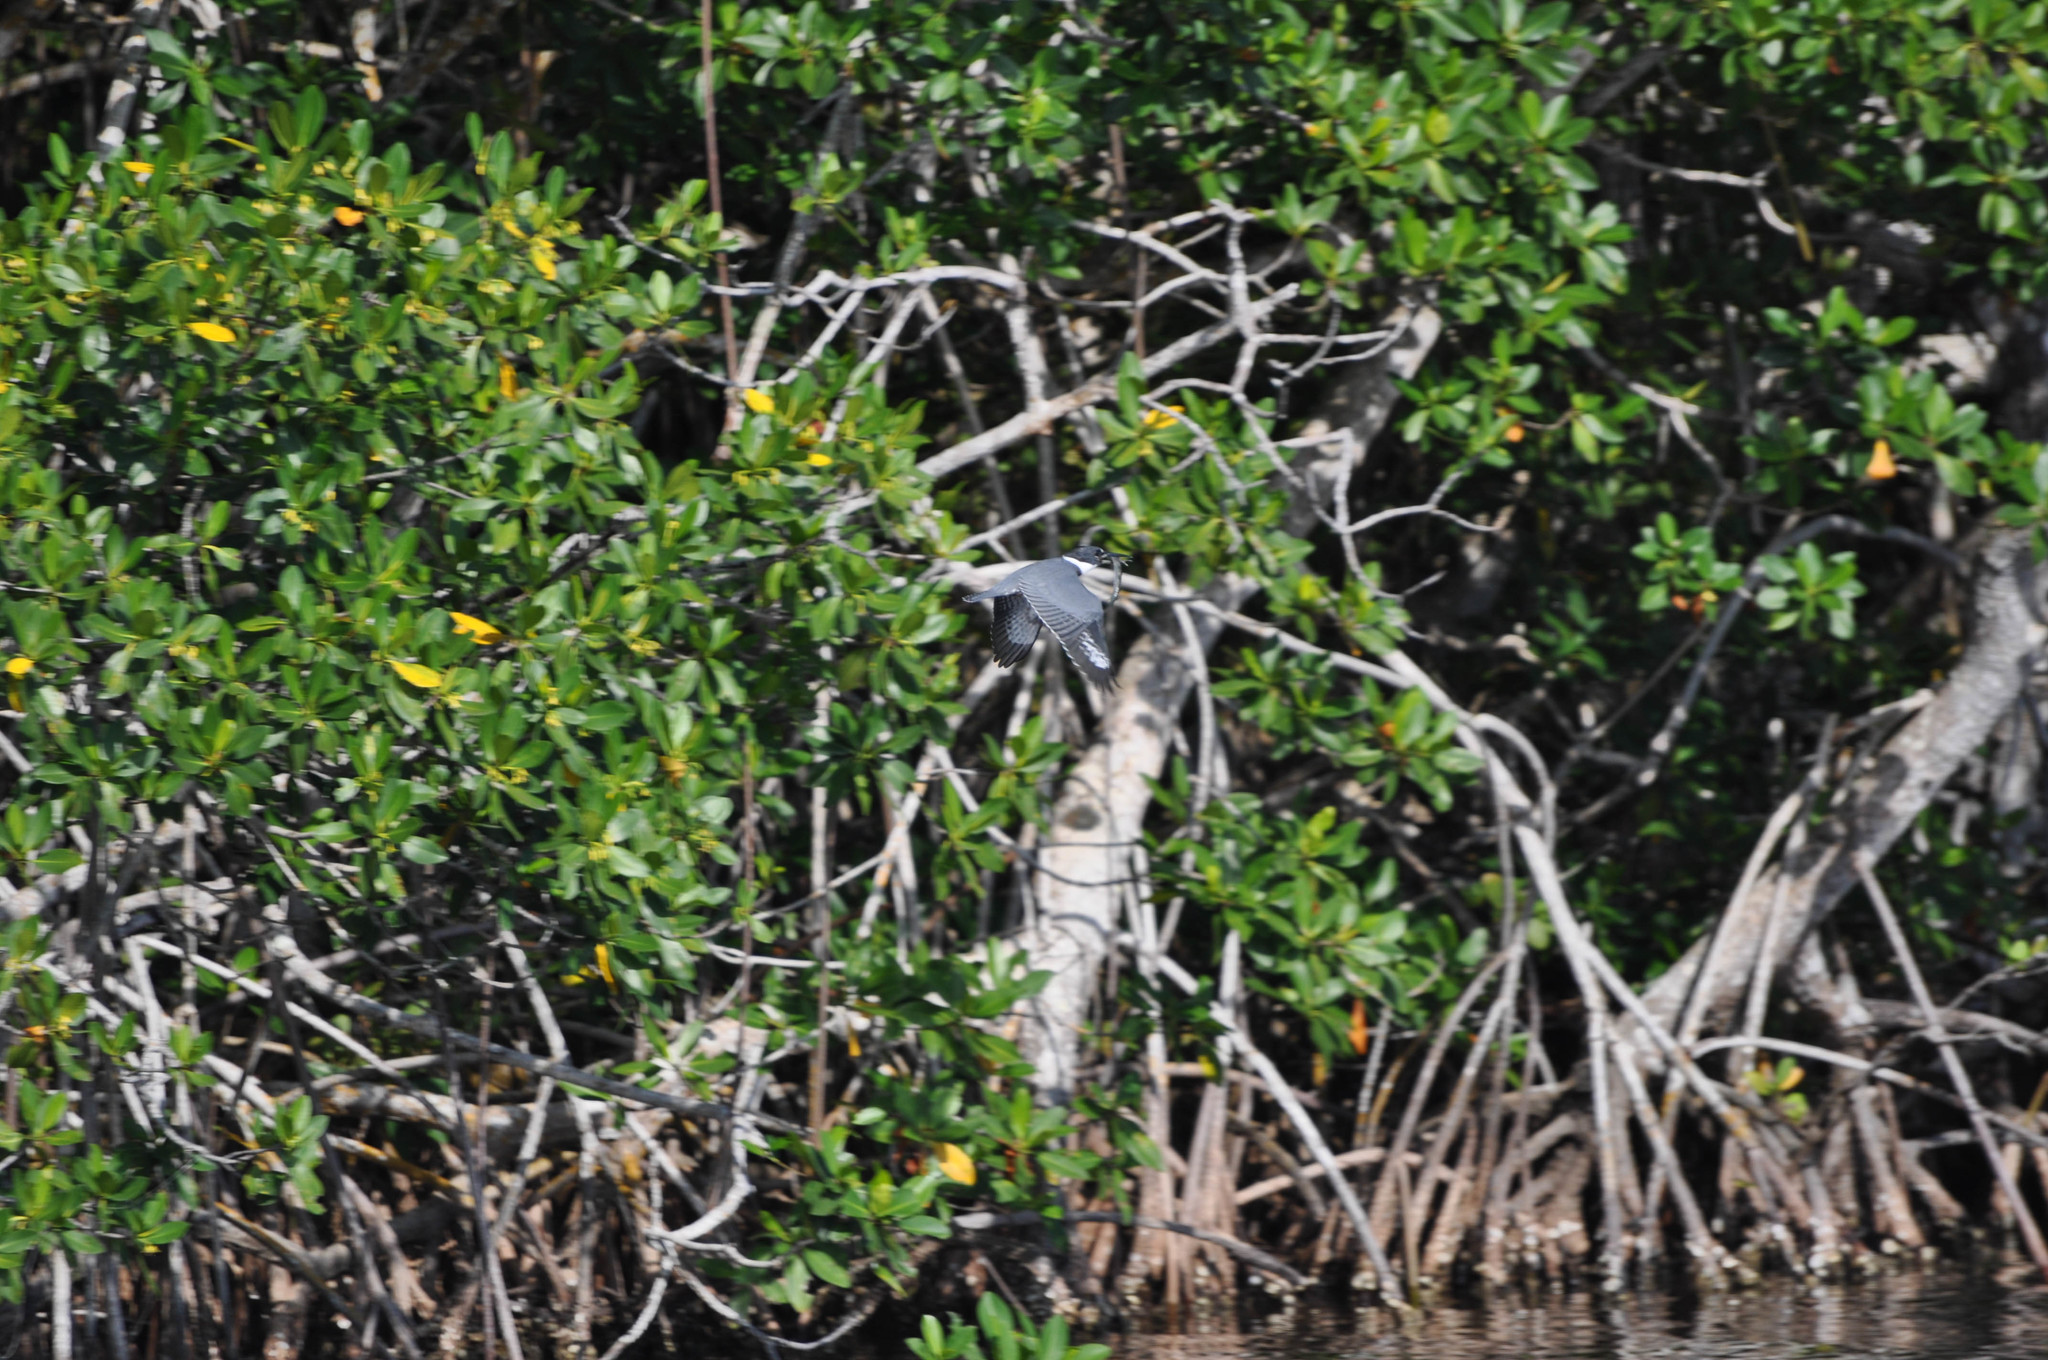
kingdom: Animalia
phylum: Chordata
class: Aves
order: Coraciiformes
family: Alcedinidae
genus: Megaceryle
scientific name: Megaceryle alcyon
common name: Belted kingfisher
